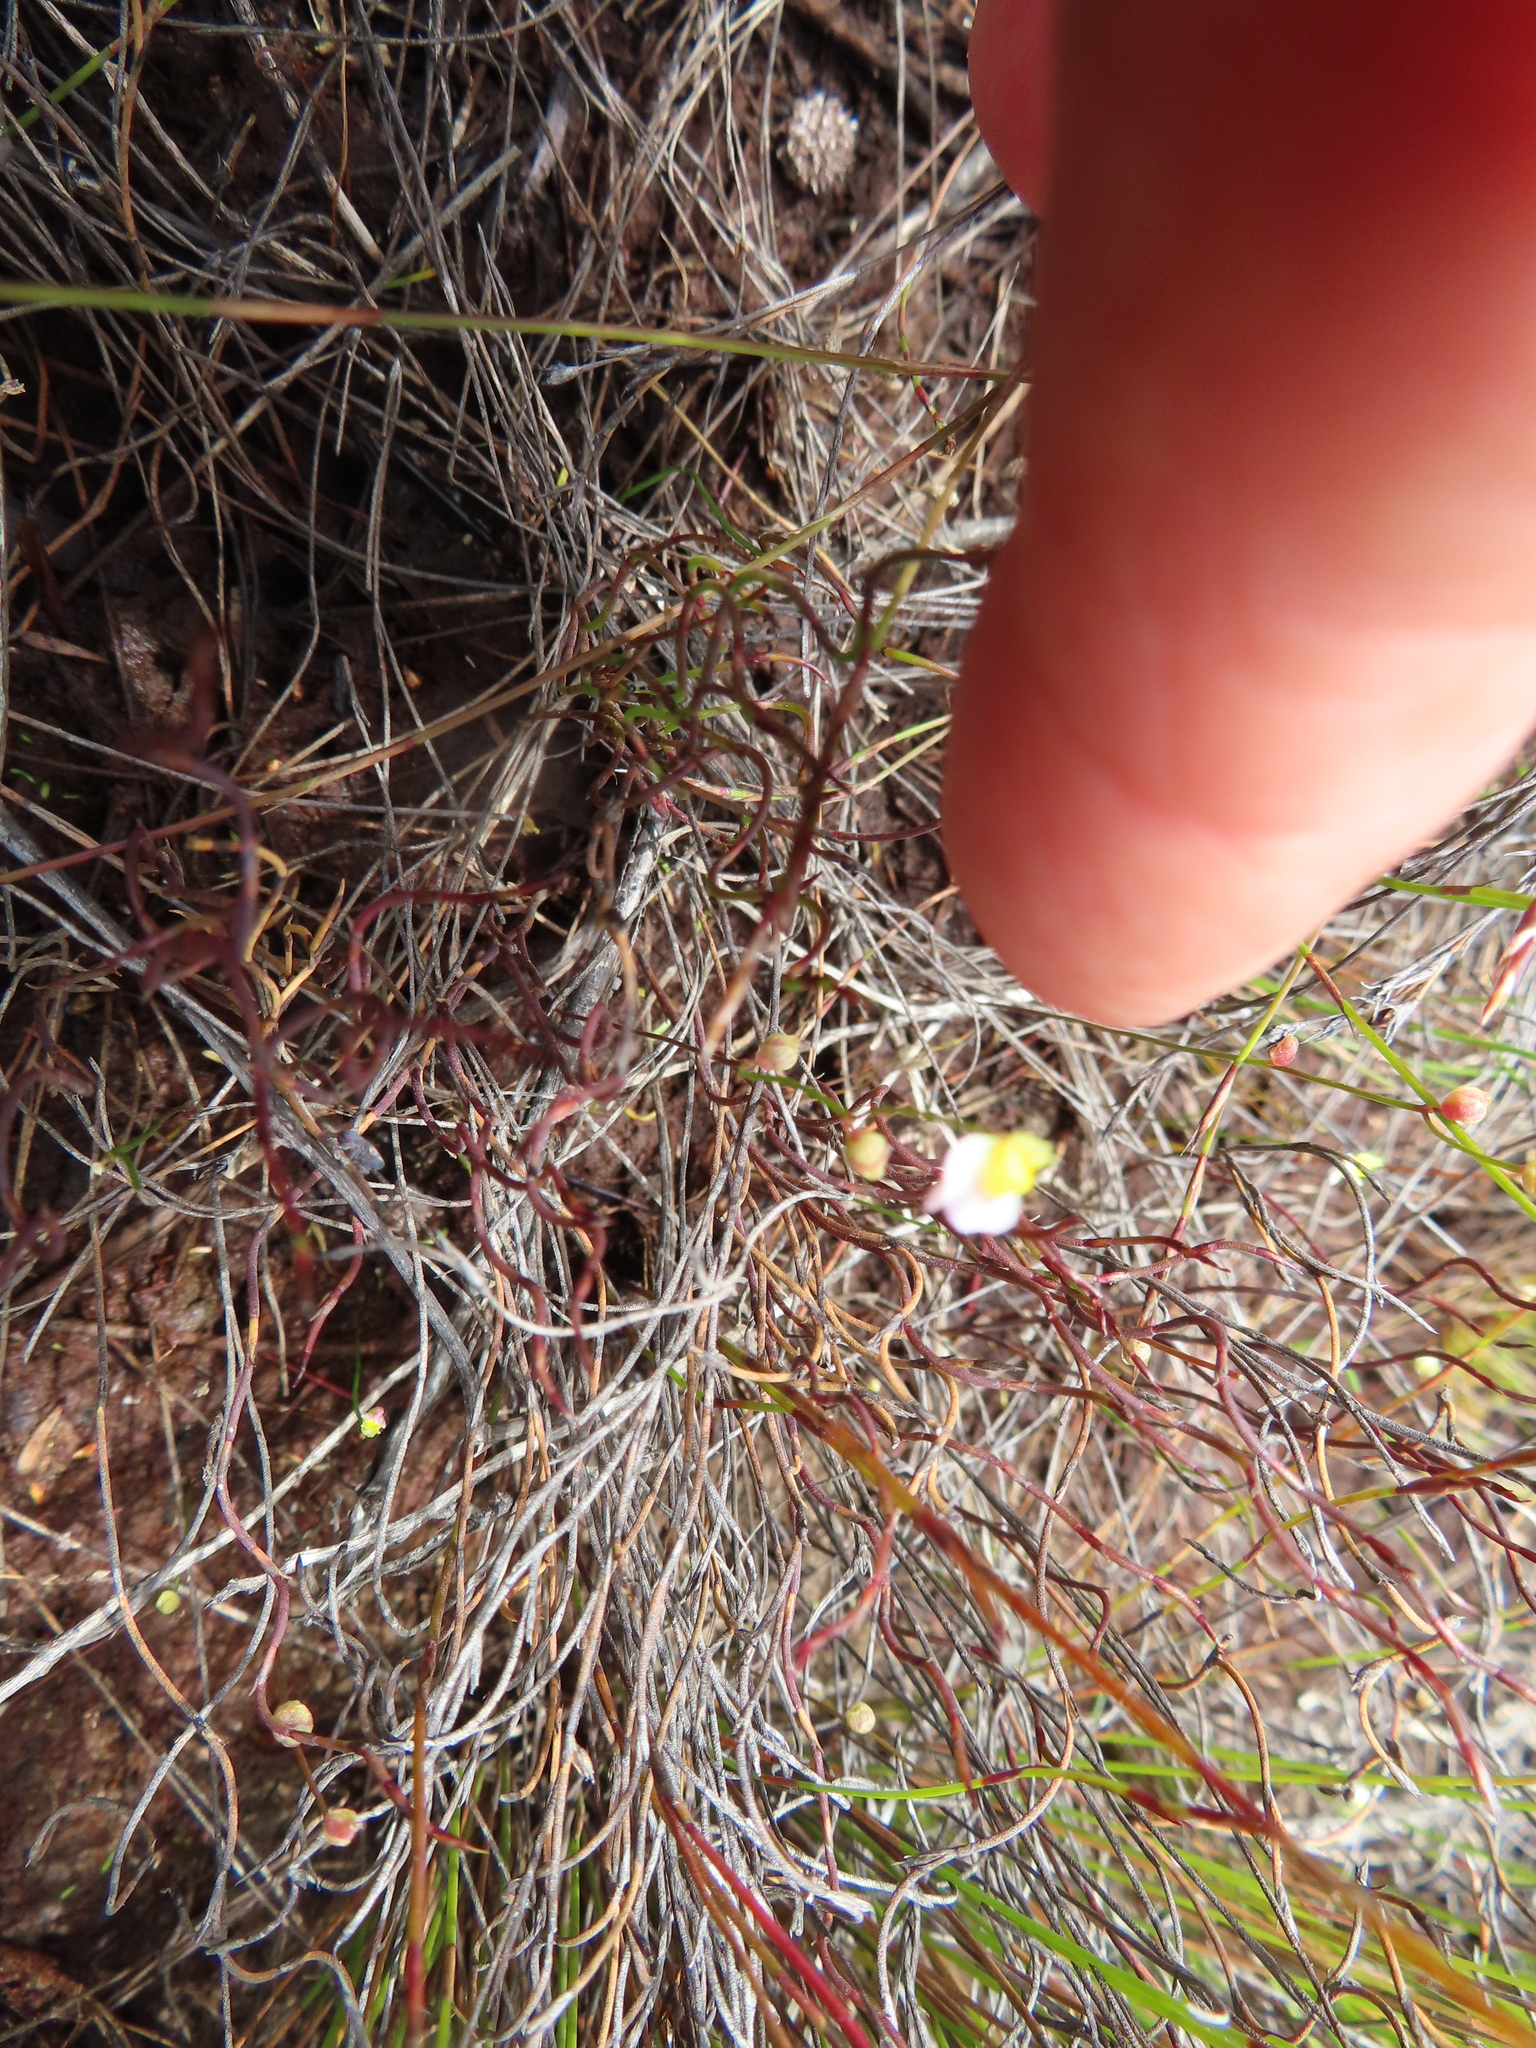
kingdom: Plantae
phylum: Tracheophyta
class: Magnoliopsida
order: Lamiales
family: Lentibulariaceae
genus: Utricularia
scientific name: Utricularia bisquamata
